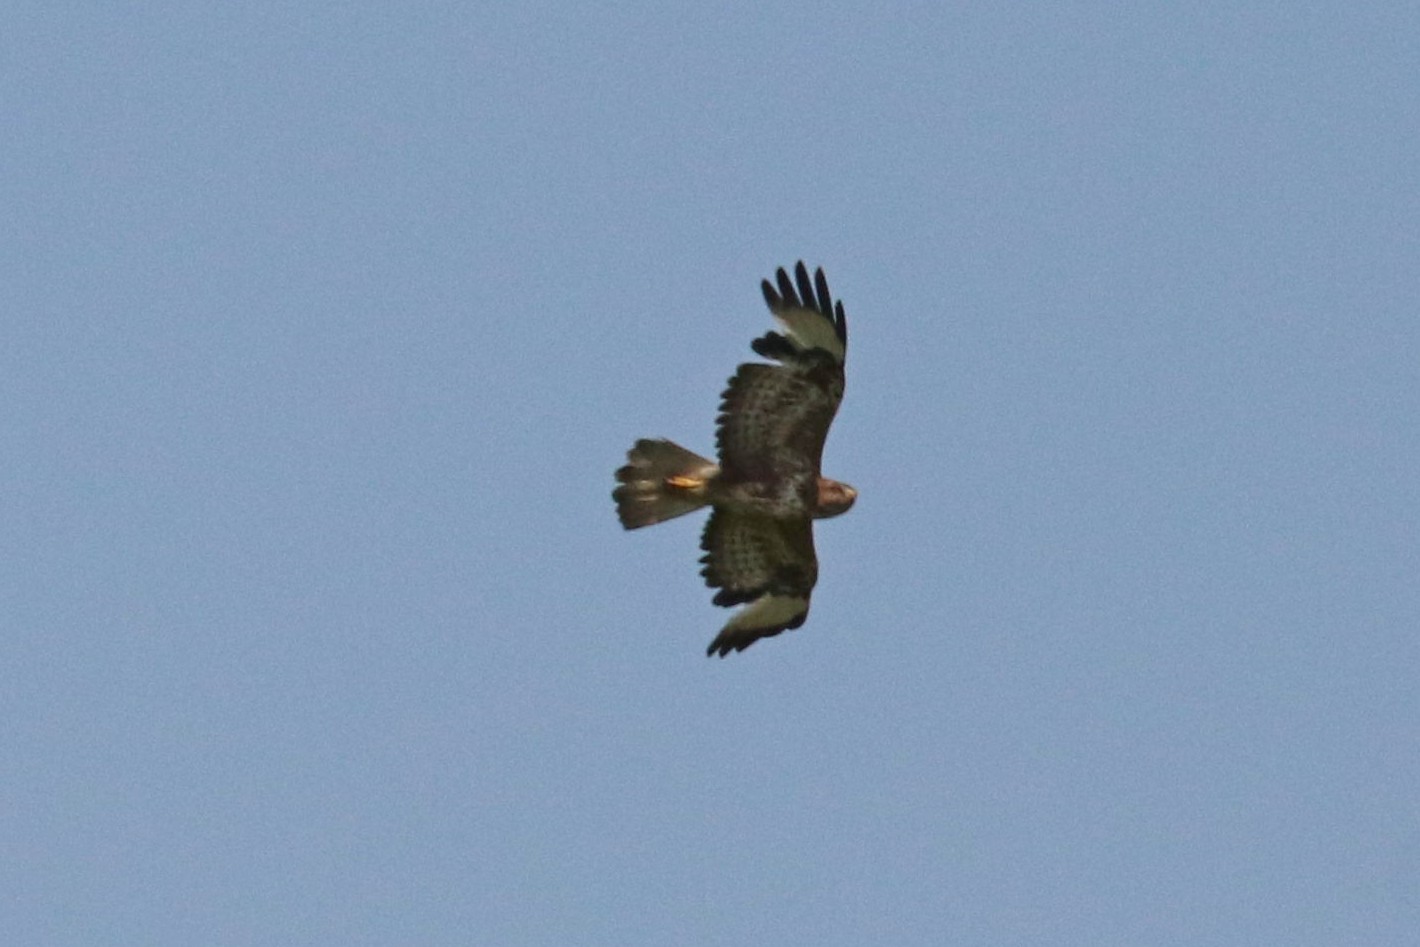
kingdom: Animalia
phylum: Chordata
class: Aves
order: Accipitriformes
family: Accipitridae
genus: Buteo
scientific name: Buteo buteo
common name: Common buzzard
